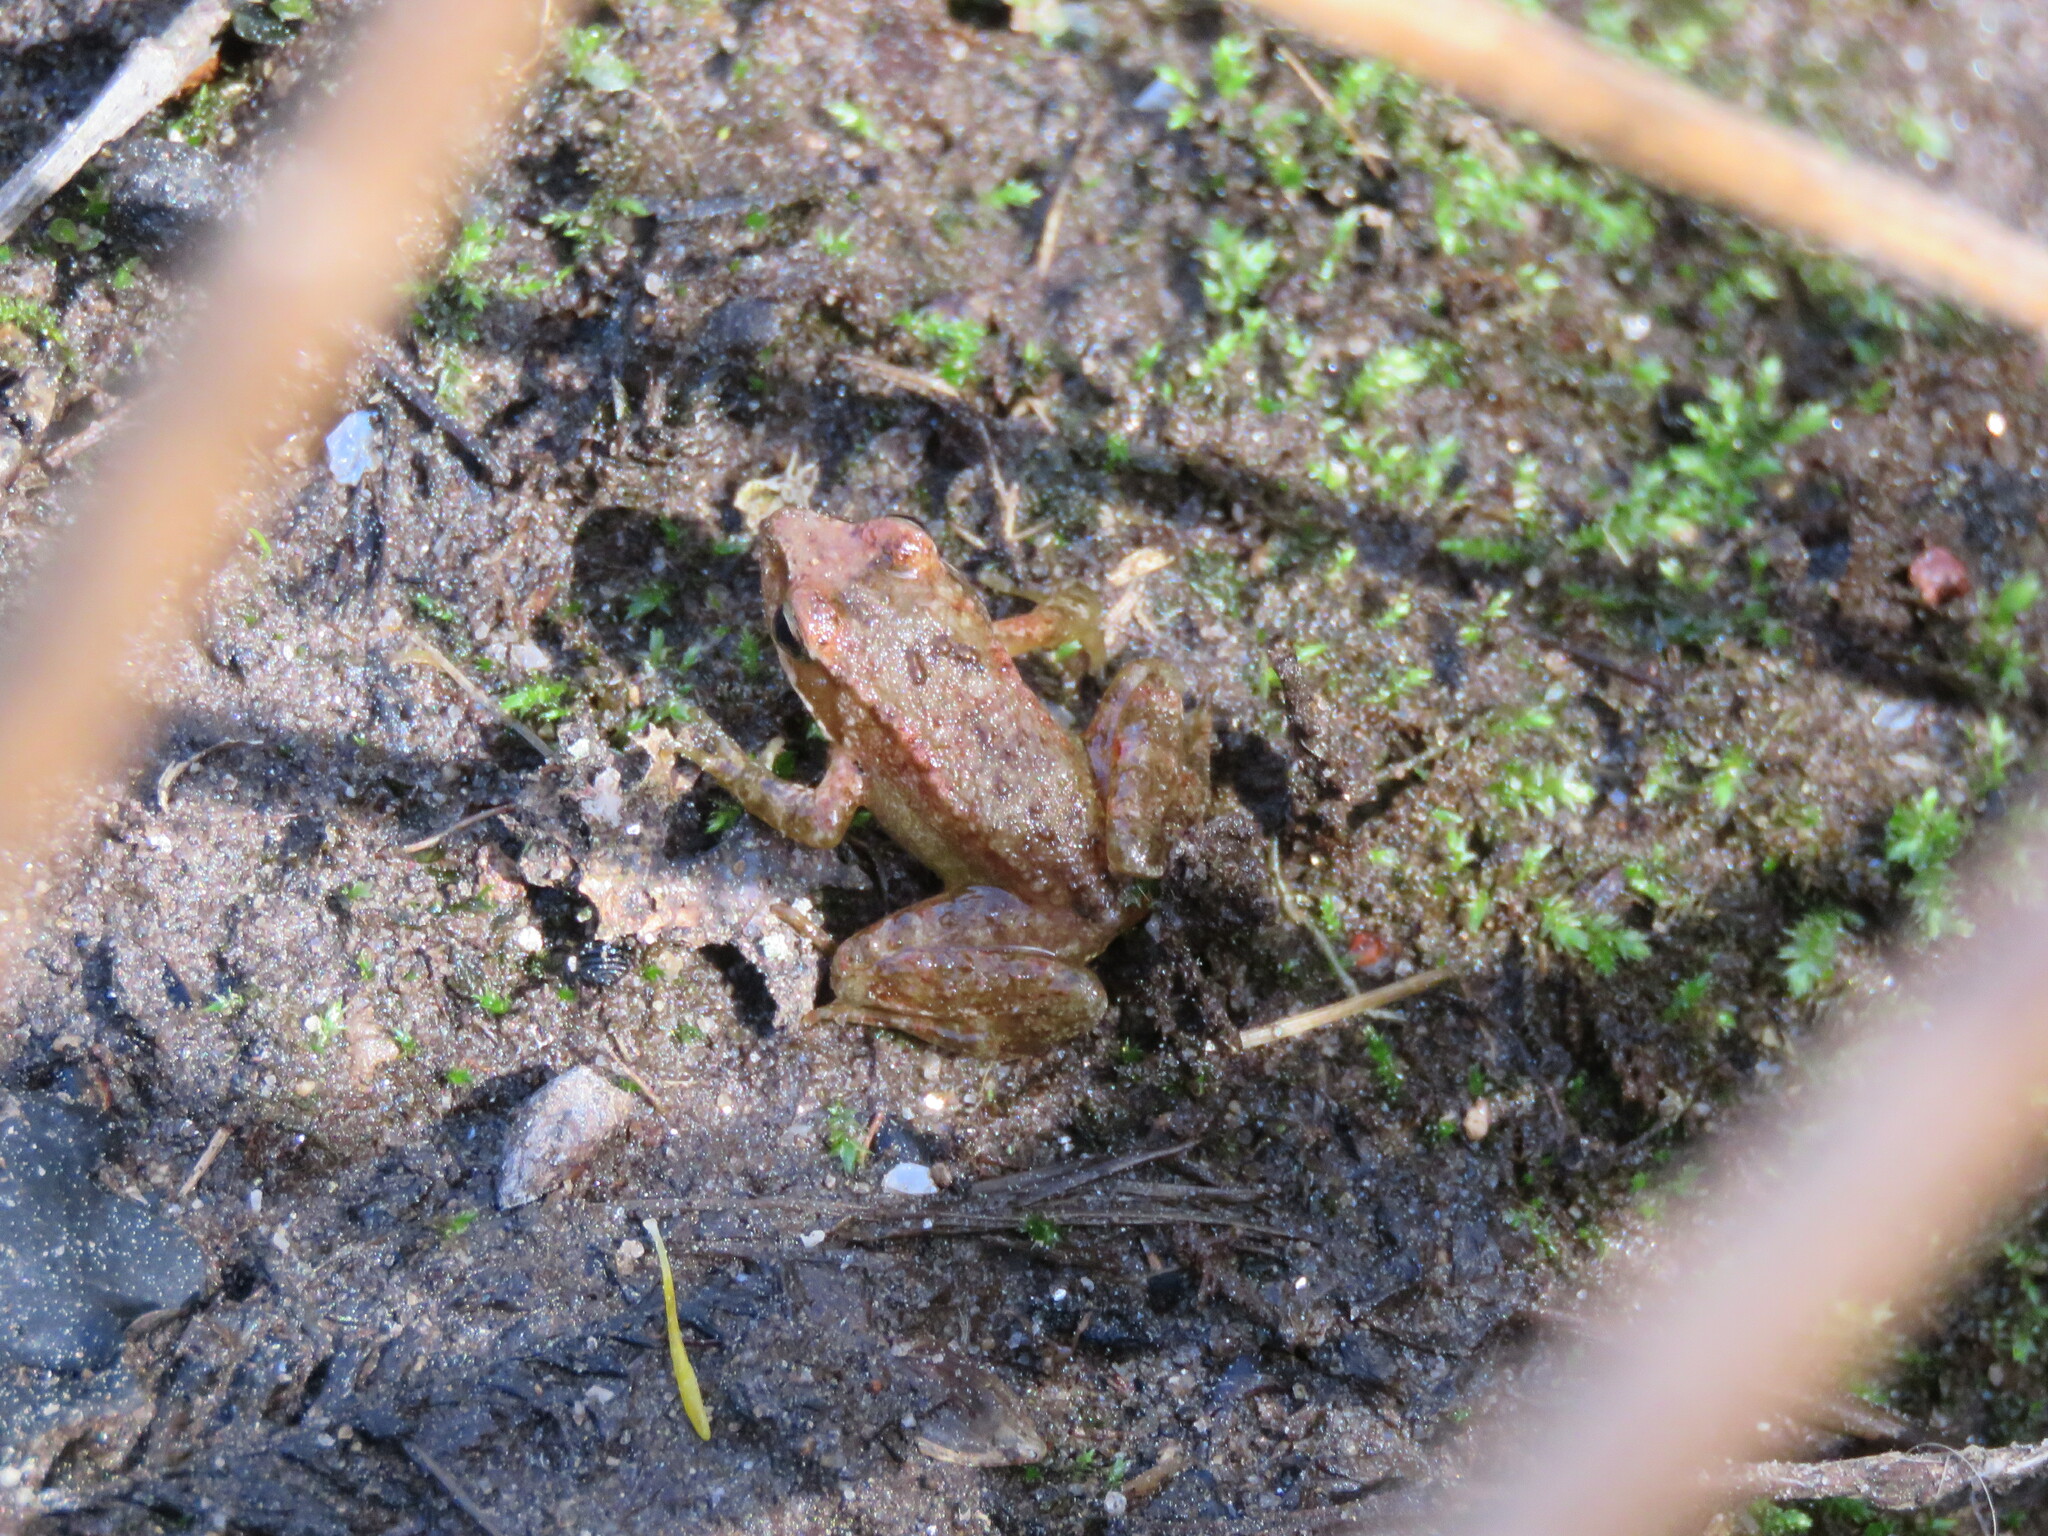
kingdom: Animalia
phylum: Chordata
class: Amphibia
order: Anura
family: Ranidae
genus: Rana
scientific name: Rana iberica
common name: Iberian frog
